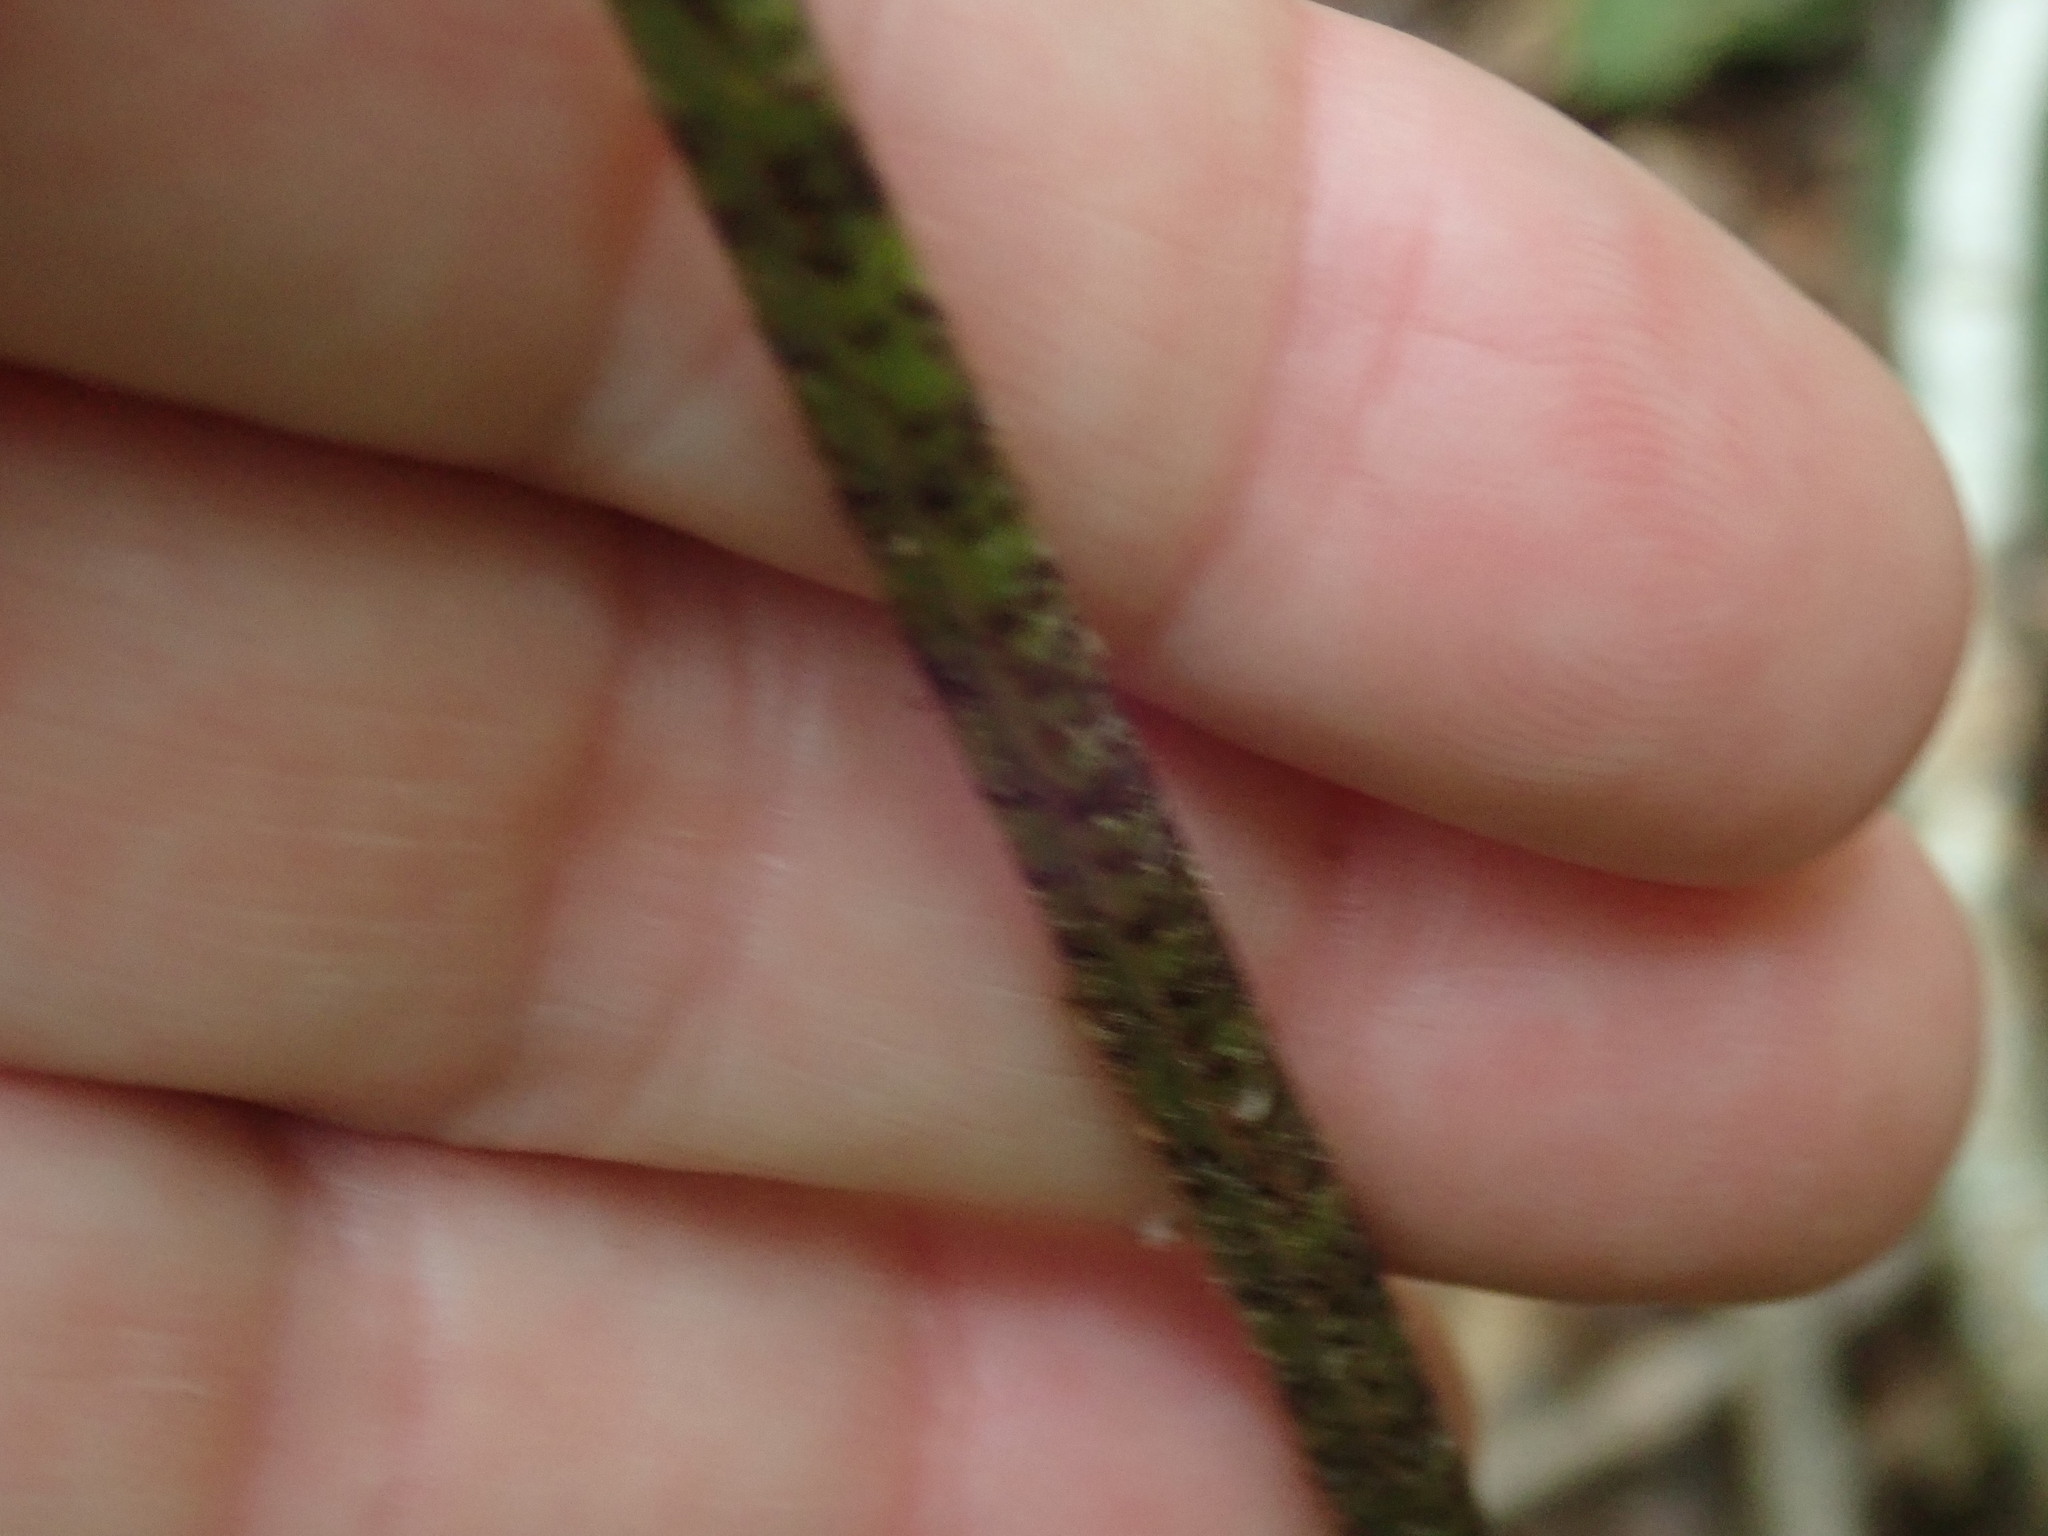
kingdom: Plantae
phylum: Tracheophyta
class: Polypodiopsida
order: Polypodiales
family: Athyriaceae
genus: Deparia
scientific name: Deparia acrostichoides
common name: Silver false spleenwort
